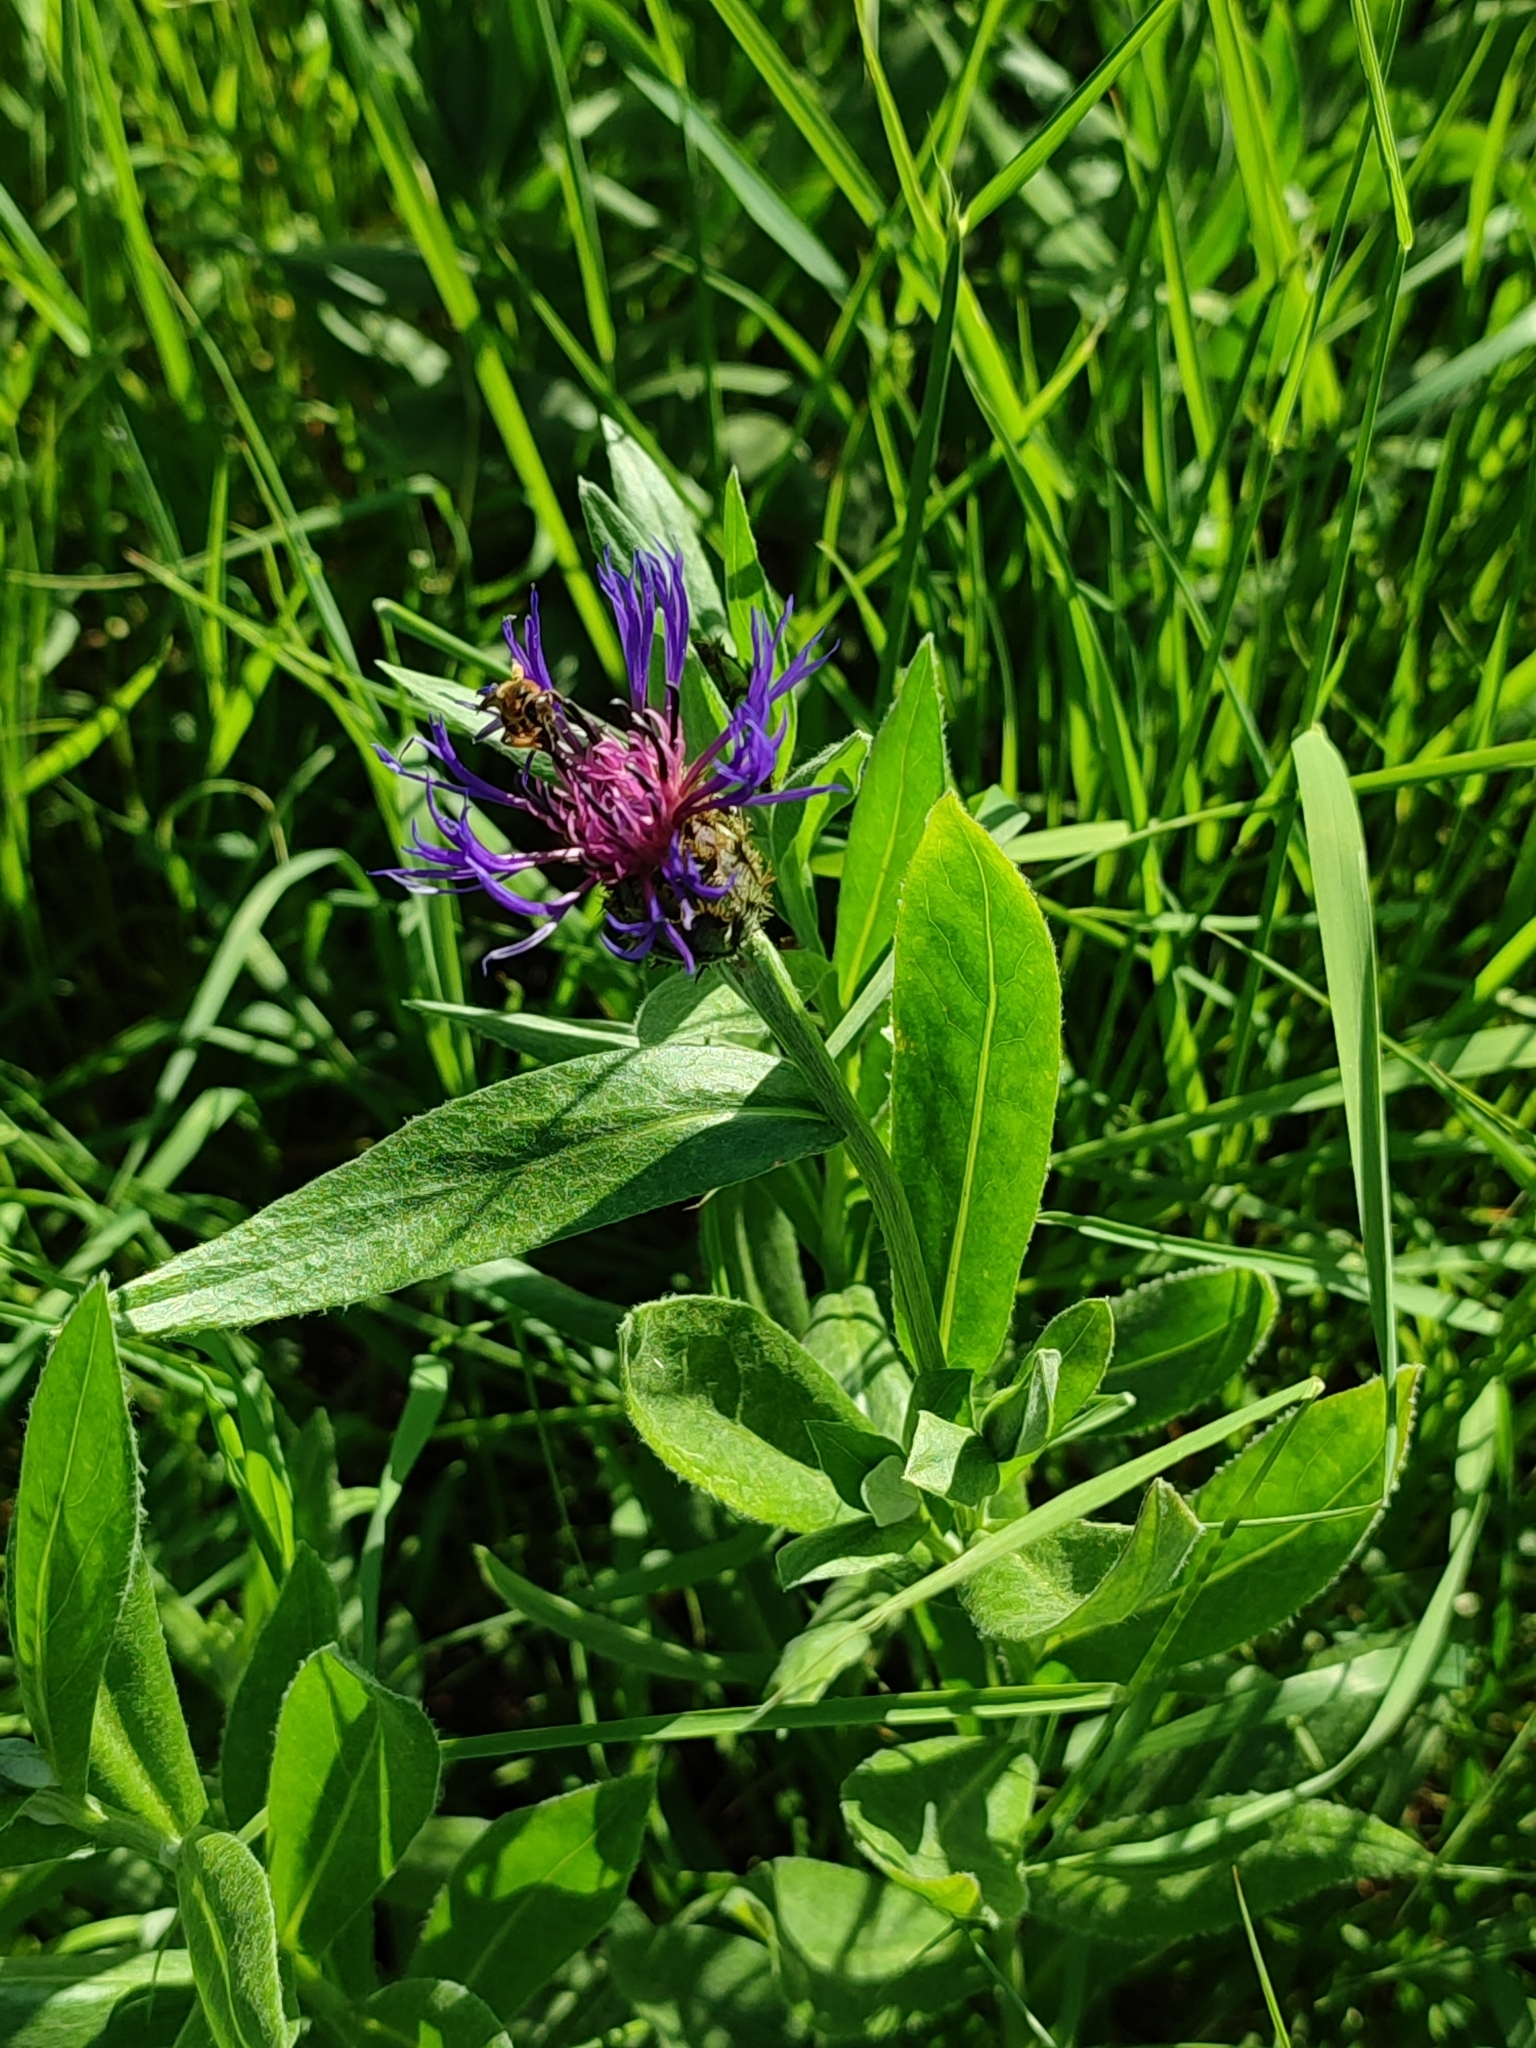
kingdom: Plantae
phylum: Tracheophyta
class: Magnoliopsida
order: Asterales
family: Asteraceae
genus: Centaurea
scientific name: Centaurea montana
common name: Perennial cornflower
